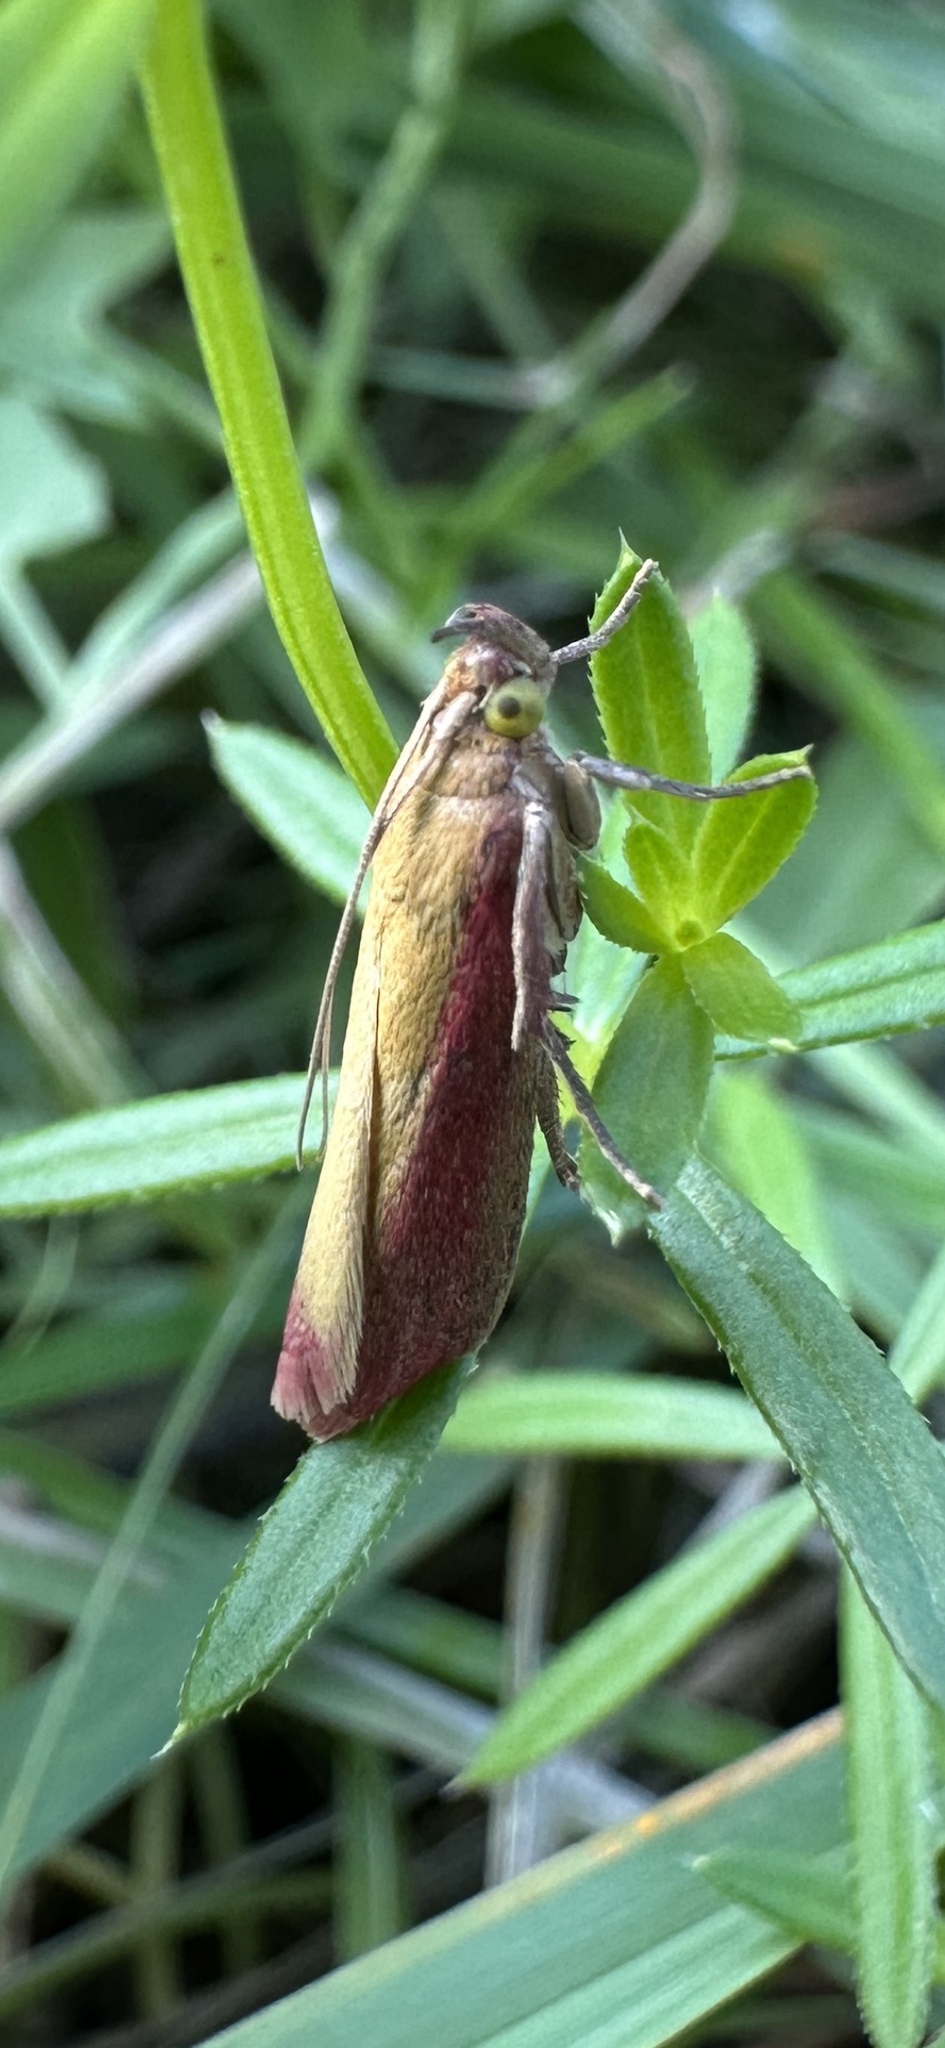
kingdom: Animalia
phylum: Arthropoda
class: Insecta
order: Lepidoptera
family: Pyralidae
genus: Oncocera
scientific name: Oncocera semirubella
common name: Rosy-striped knot-horn
